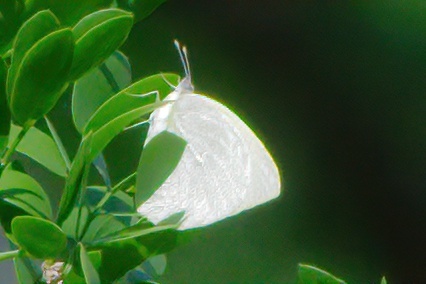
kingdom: Animalia
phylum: Arthropoda
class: Insecta
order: Lepidoptera
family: Pieridae
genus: Kricogonia
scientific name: Kricogonia lyside
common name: Guayacan sulphur,
